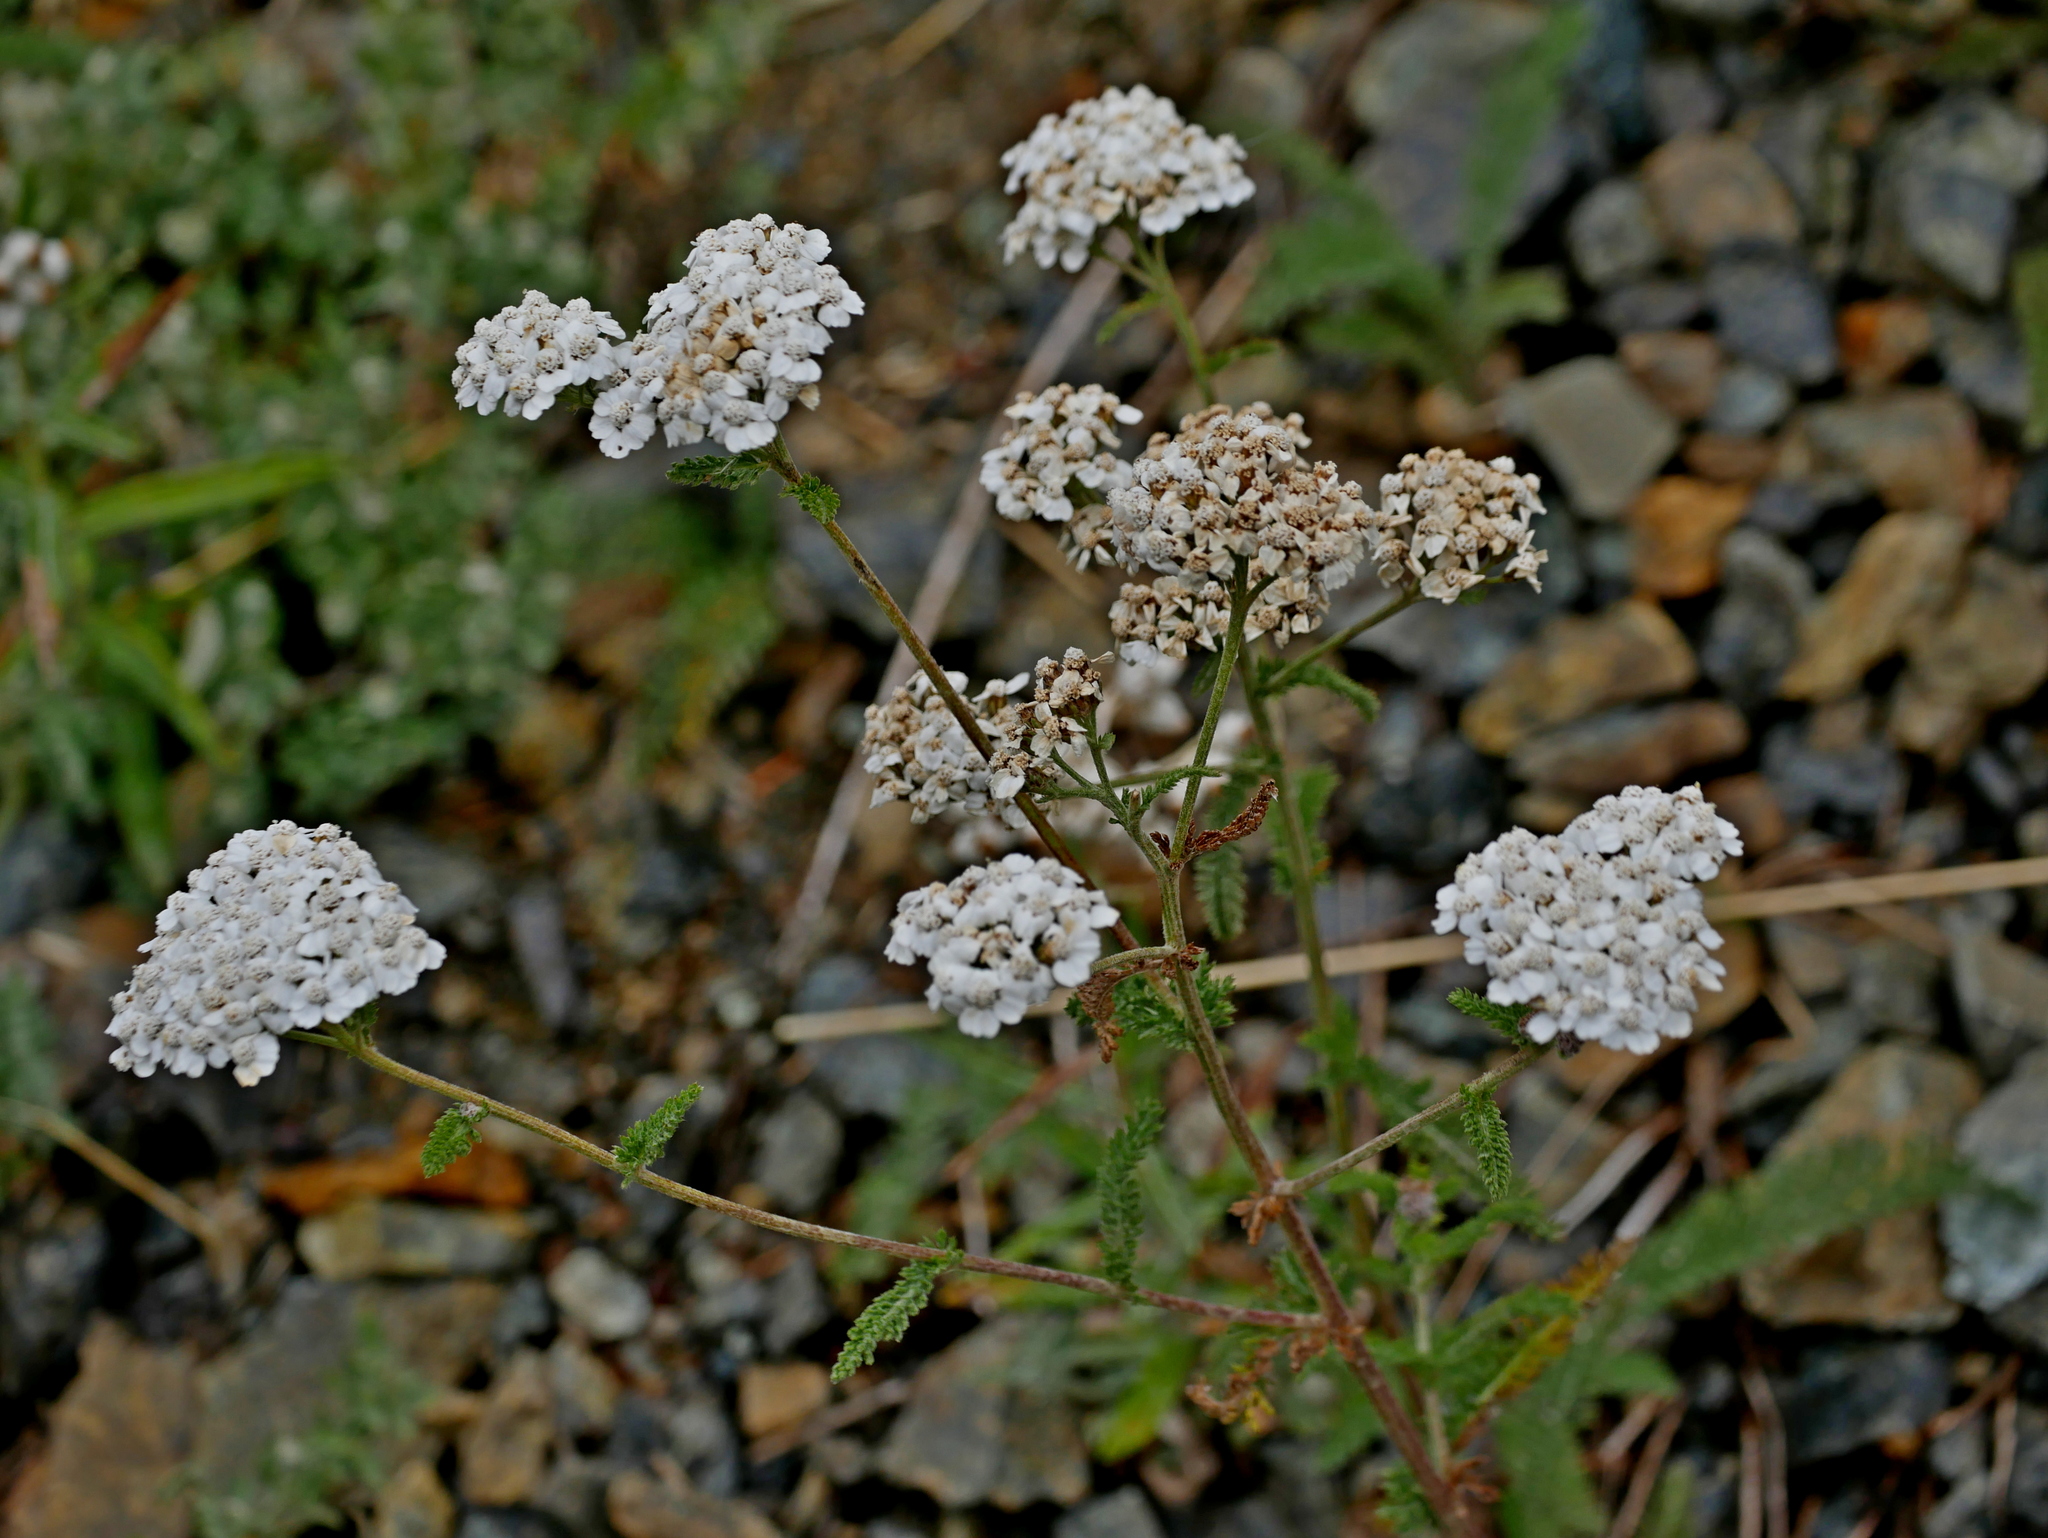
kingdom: Plantae
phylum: Tracheophyta
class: Magnoliopsida
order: Asterales
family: Asteraceae
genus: Achillea
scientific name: Achillea millefolium
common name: Yarrow
